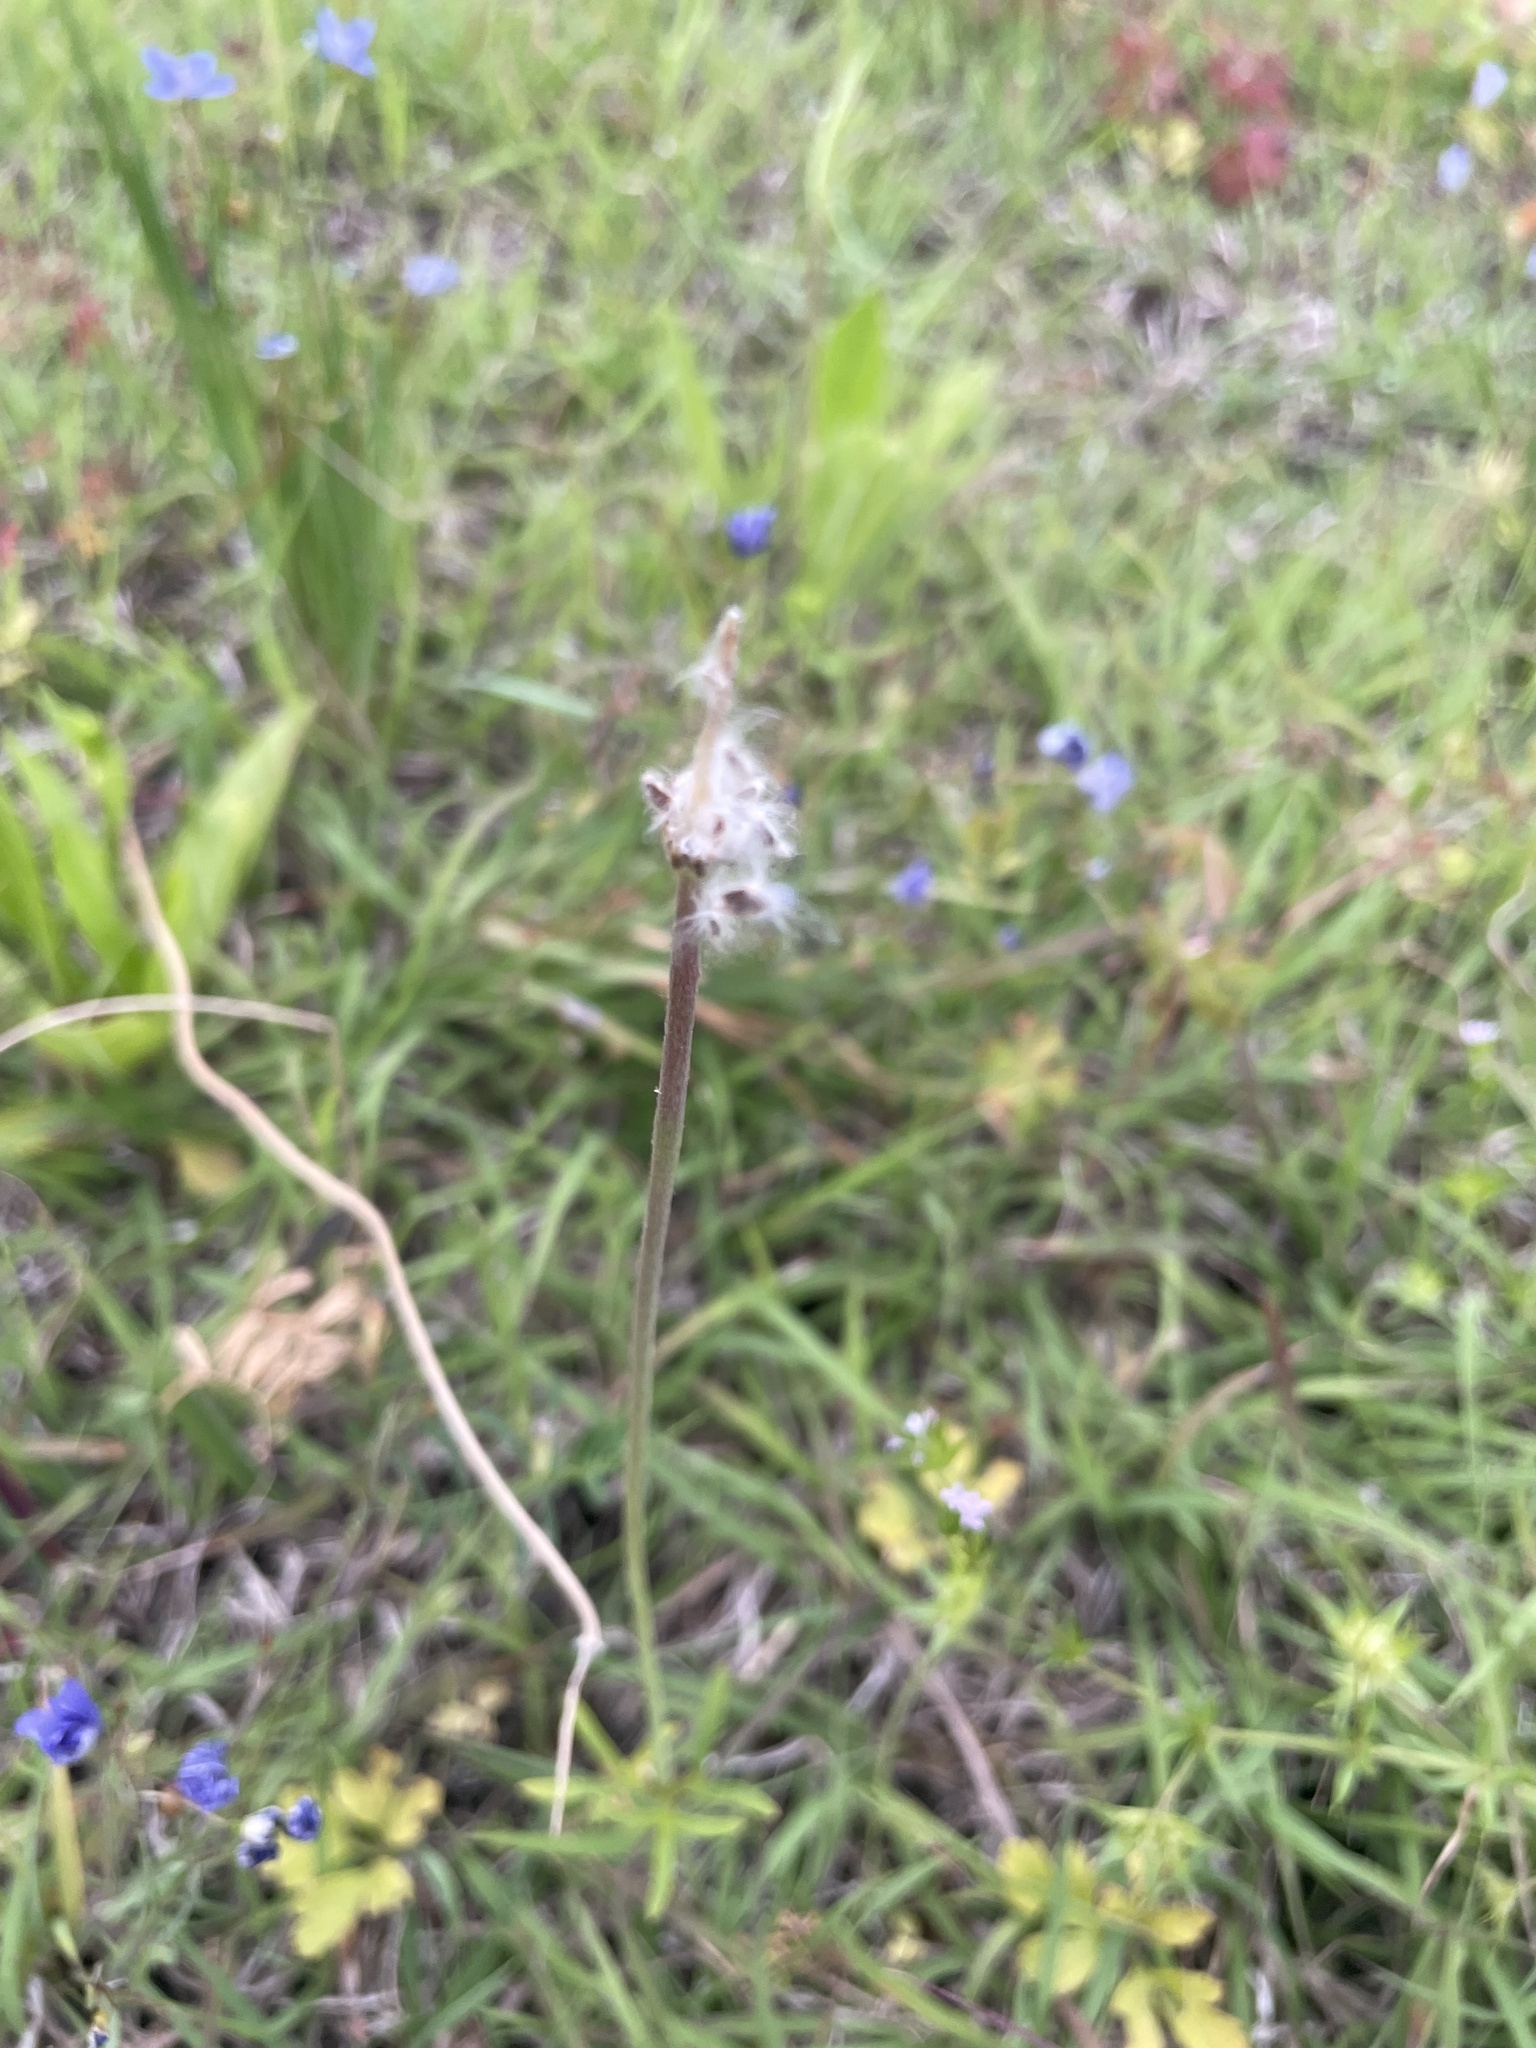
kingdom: Plantae
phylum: Tracheophyta
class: Magnoliopsida
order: Ranunculales
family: Ranunculaceae
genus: Anemone
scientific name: Anemone berlandieri
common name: Ten-petal anemone
